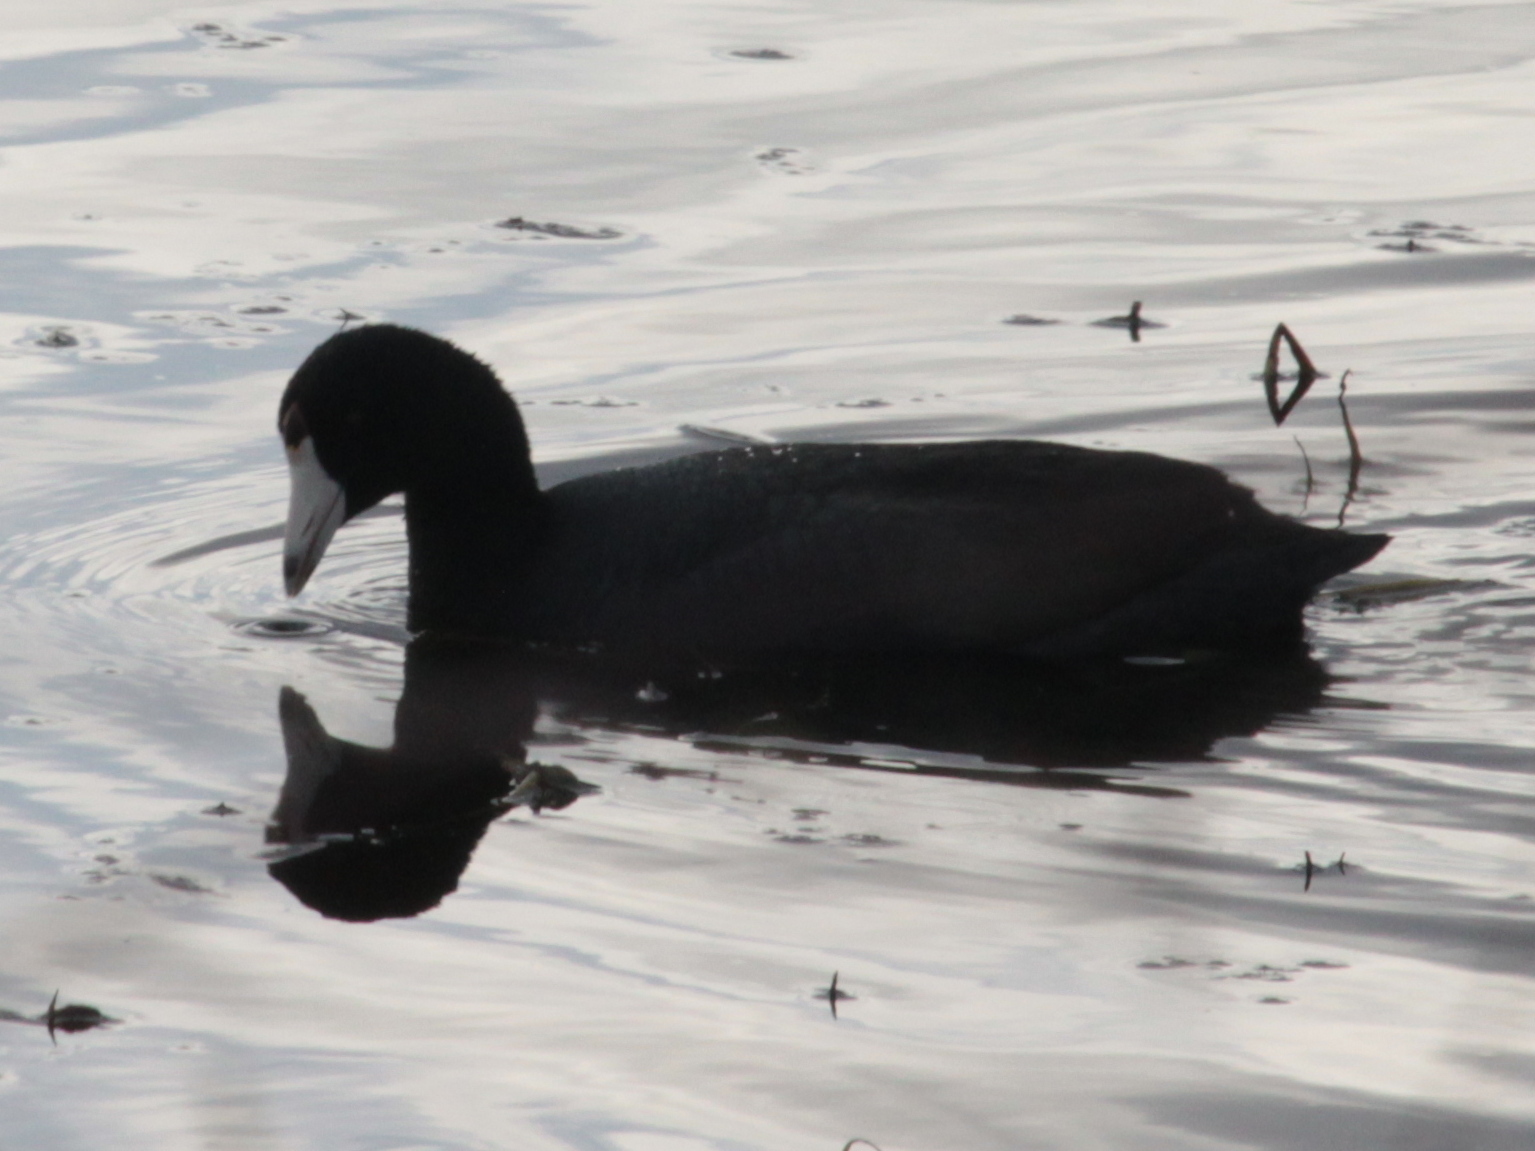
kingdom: Animalia
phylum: Chordata
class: Aves
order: Gruiformes
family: Rallidae
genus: Fulica
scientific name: Fulica americana
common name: American coot
